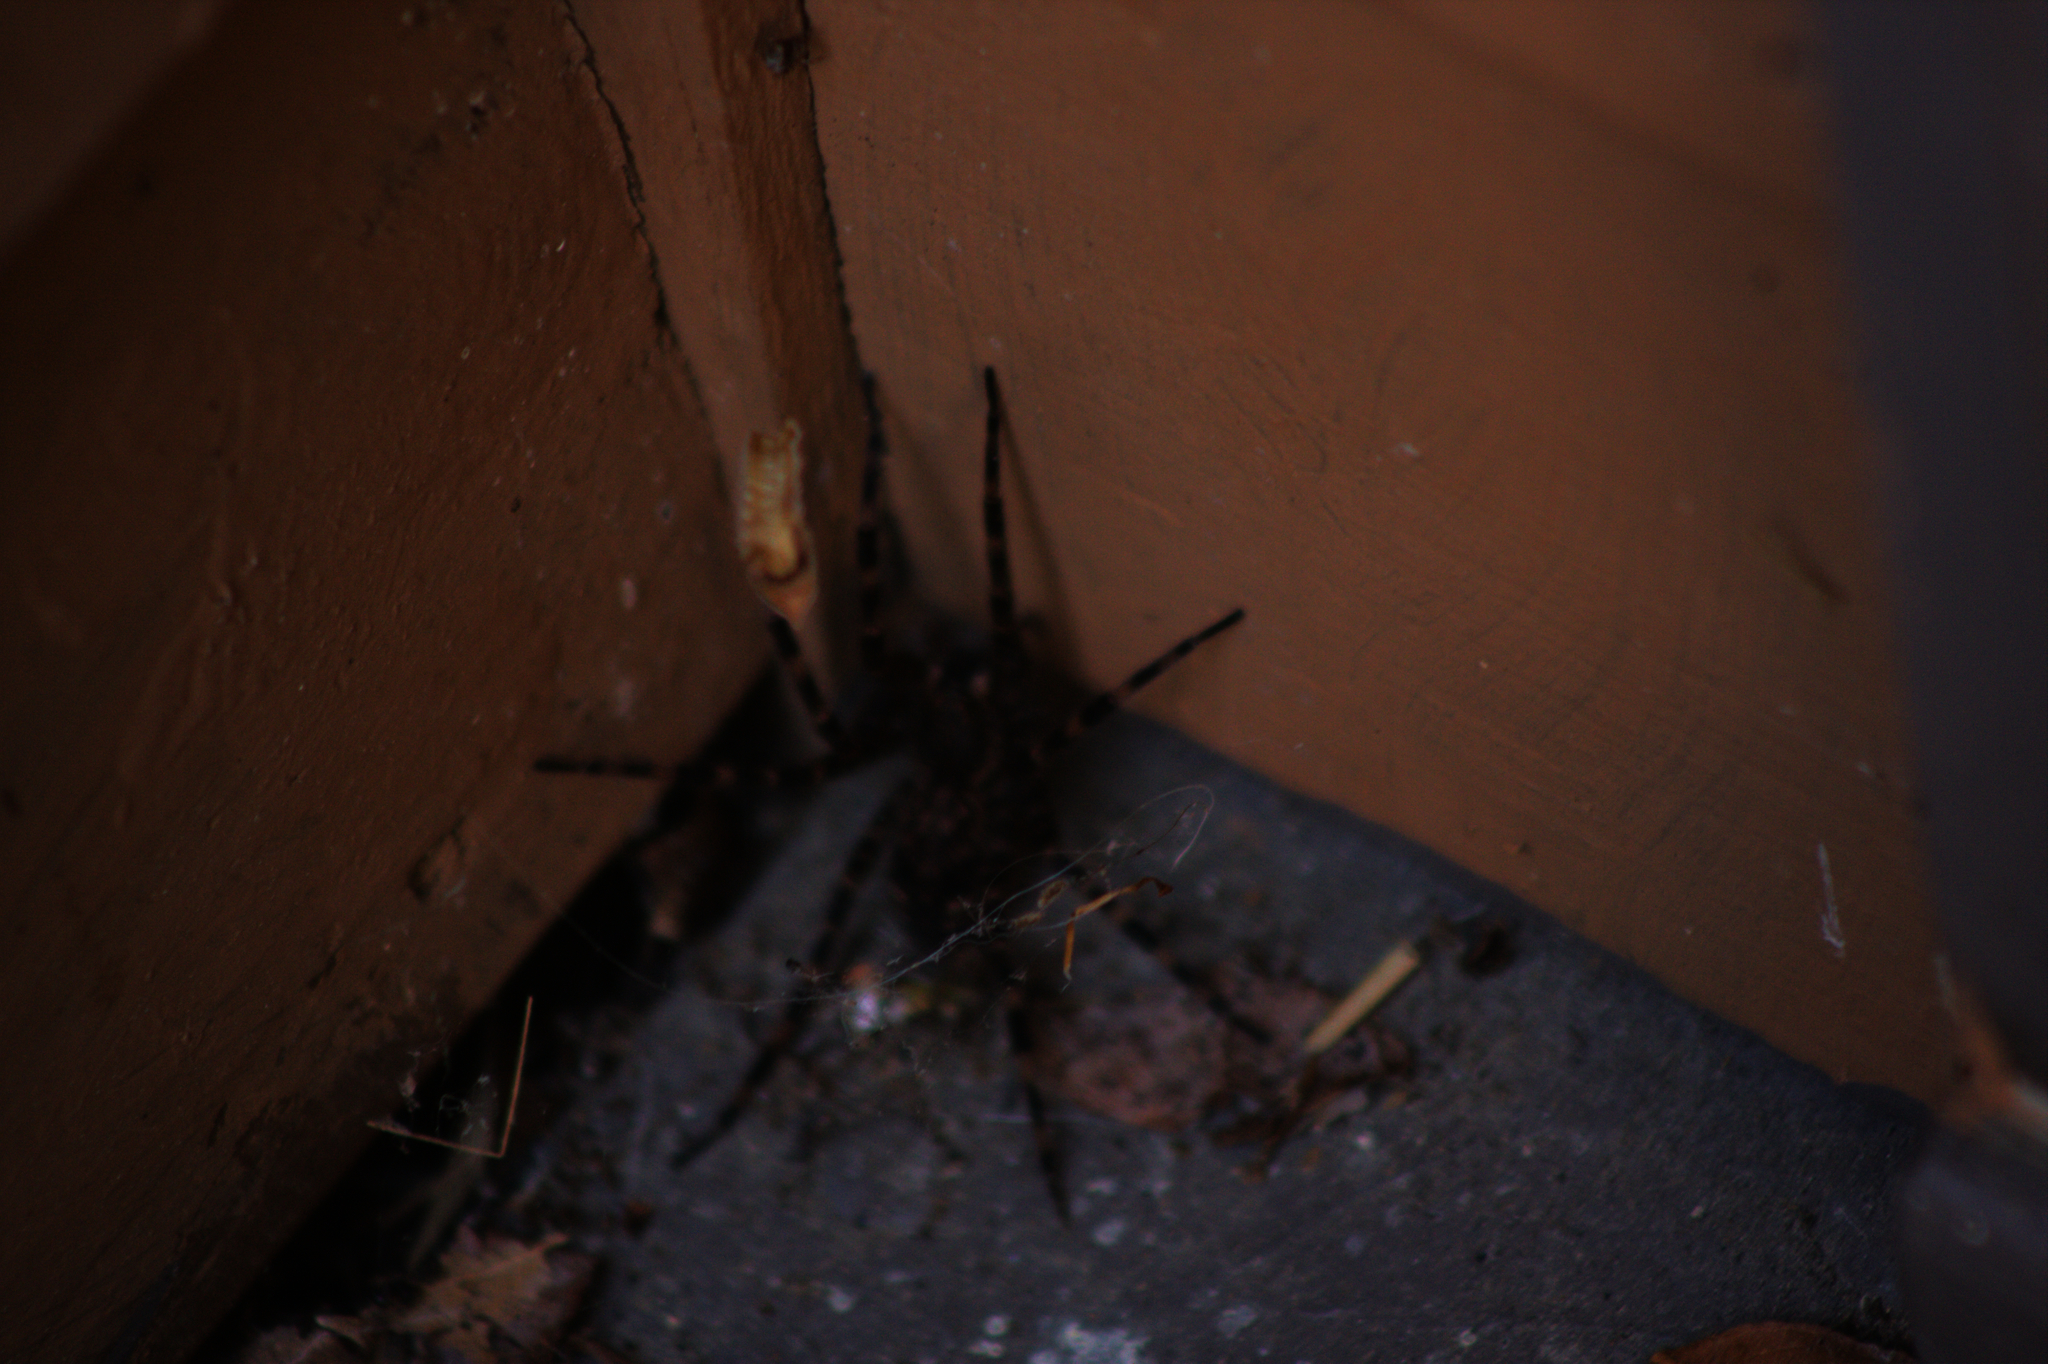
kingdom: Animalia
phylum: Arthropoda
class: Arachnida
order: Araneae
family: Pisauridae
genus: Dolomedes
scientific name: Dolomedes tenebrosus
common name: Dark fishing spider
